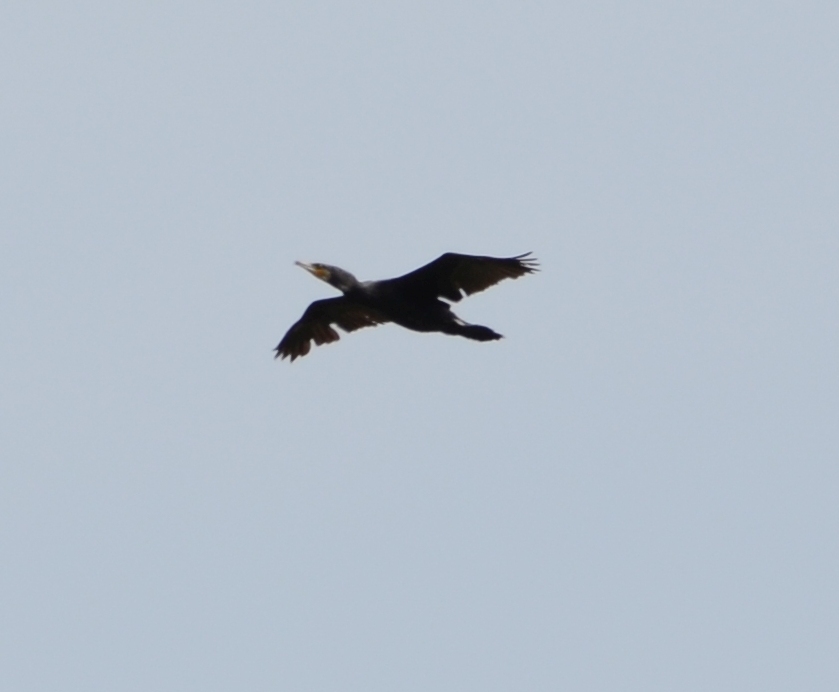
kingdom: Animalia
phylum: Chordata
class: Aves
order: Suliformes
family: Phalacrocoracidae
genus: Phalacrocorax
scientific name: Phalacrocorax carbo
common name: Great cormorant
